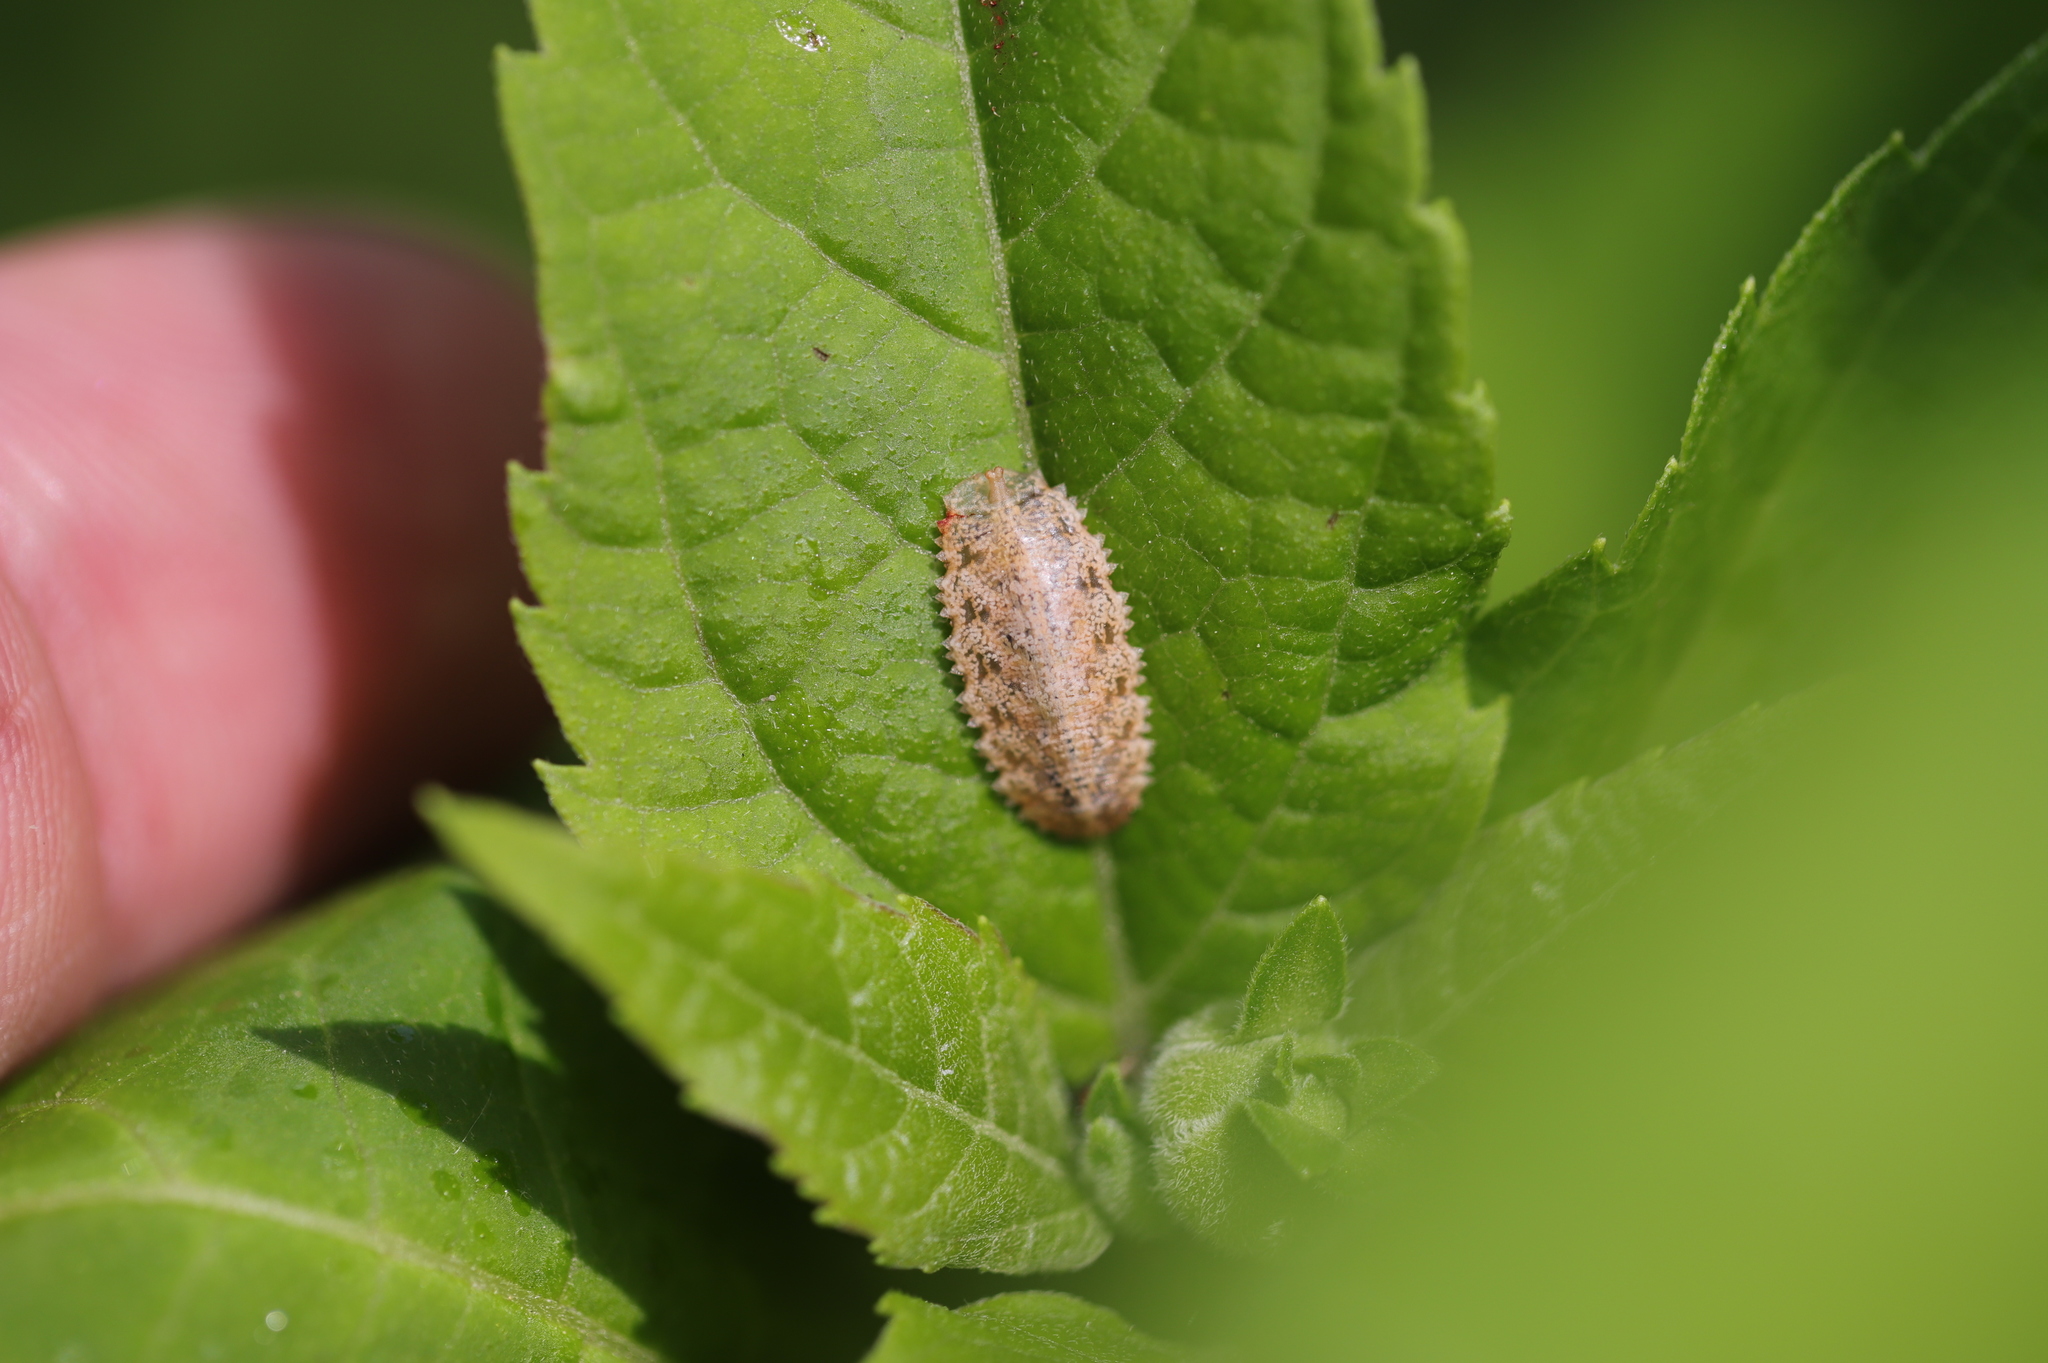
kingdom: Animalia
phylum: Arthropoda
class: Insecta
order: Diptera
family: Syrphidae
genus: Epistrophella
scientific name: Epistrophella emarginata
